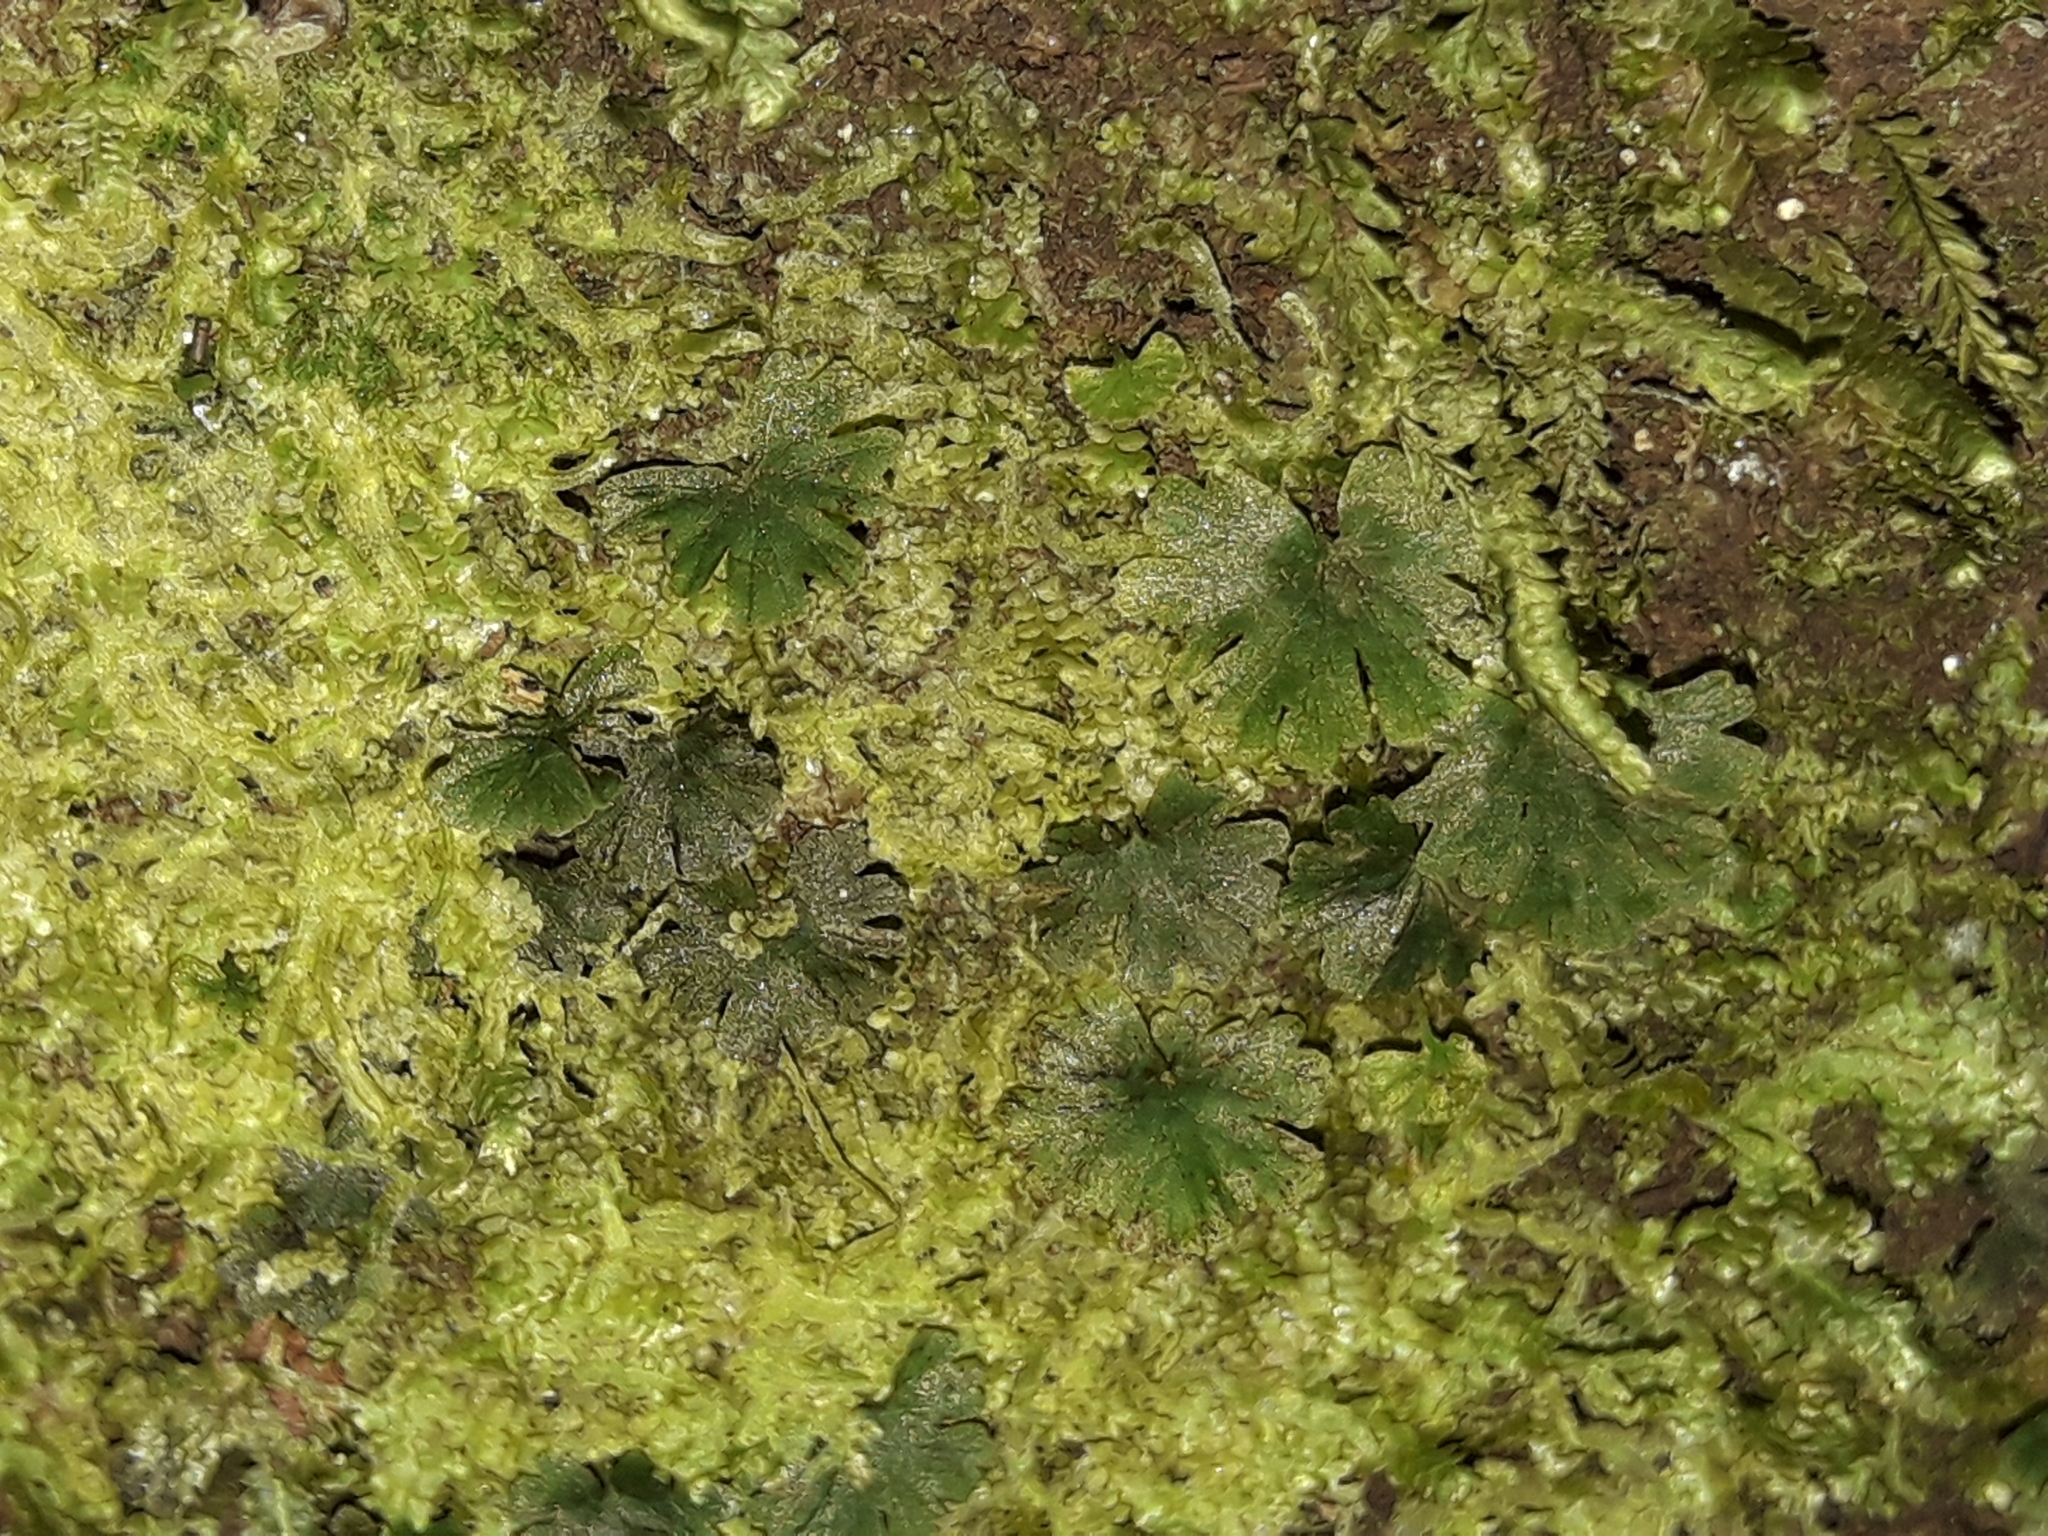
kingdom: Plantae
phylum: Tracheophyta
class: Polypodiopsida
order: Hymenophyllales
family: Hymenophyllaceae
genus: Crepidomanes
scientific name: Crepidomanes saxifragoides
